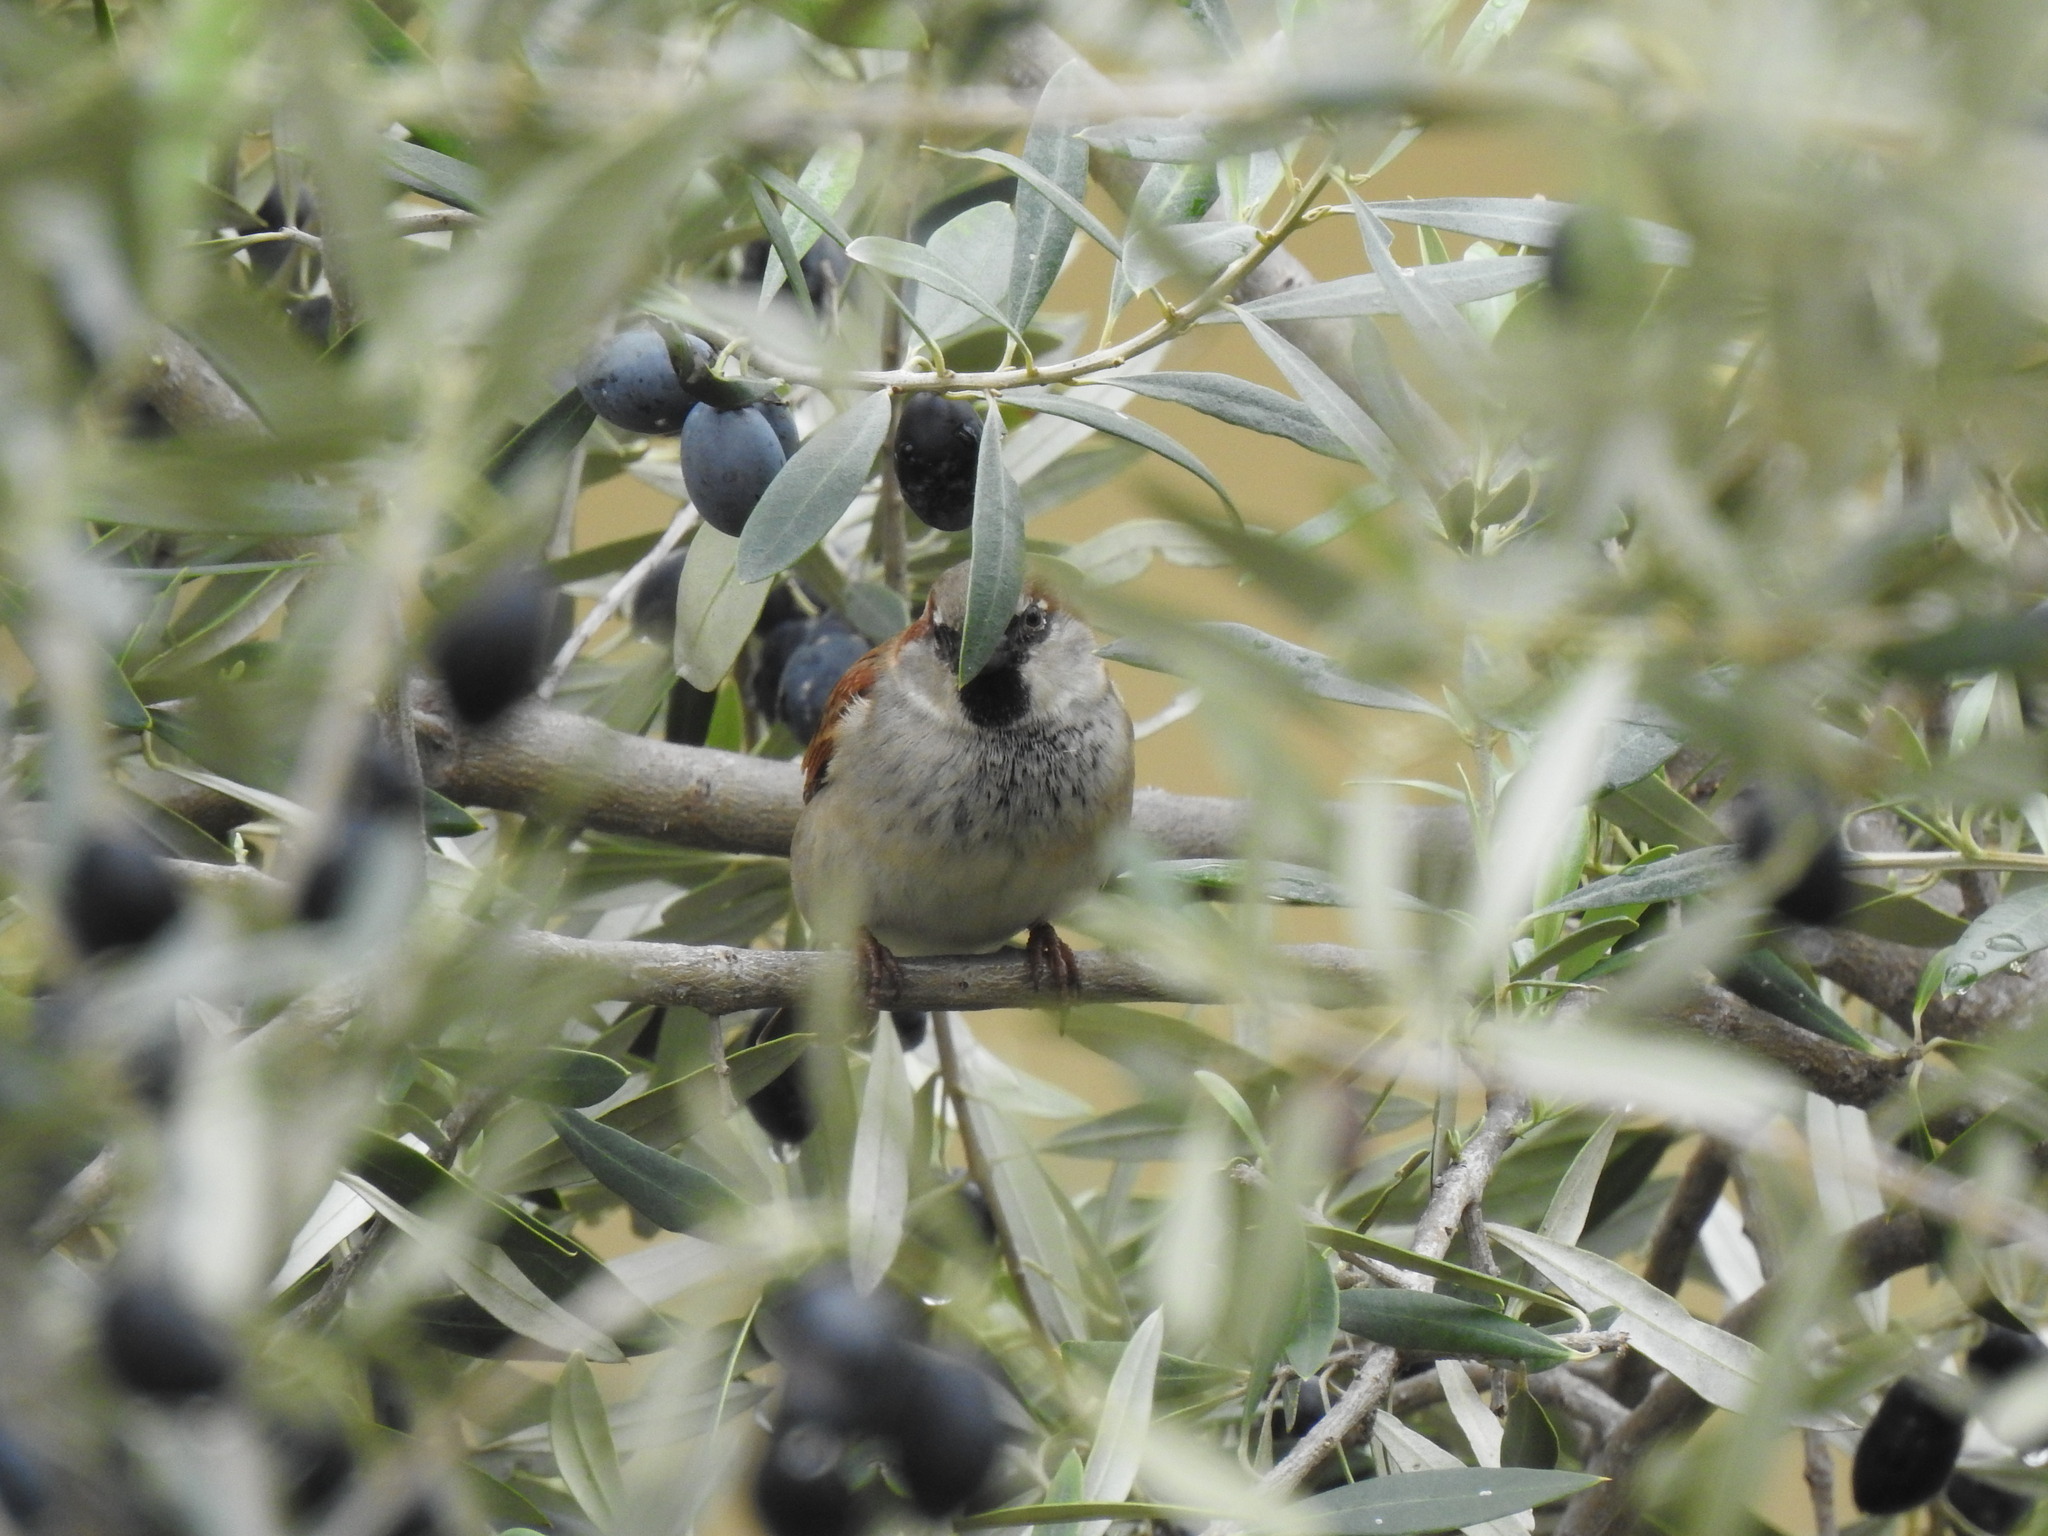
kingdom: Animalia
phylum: Chordata
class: Aves
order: Passeriformes
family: Passeridae
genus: Passer
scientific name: Passer domesticus
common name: House sparrow
